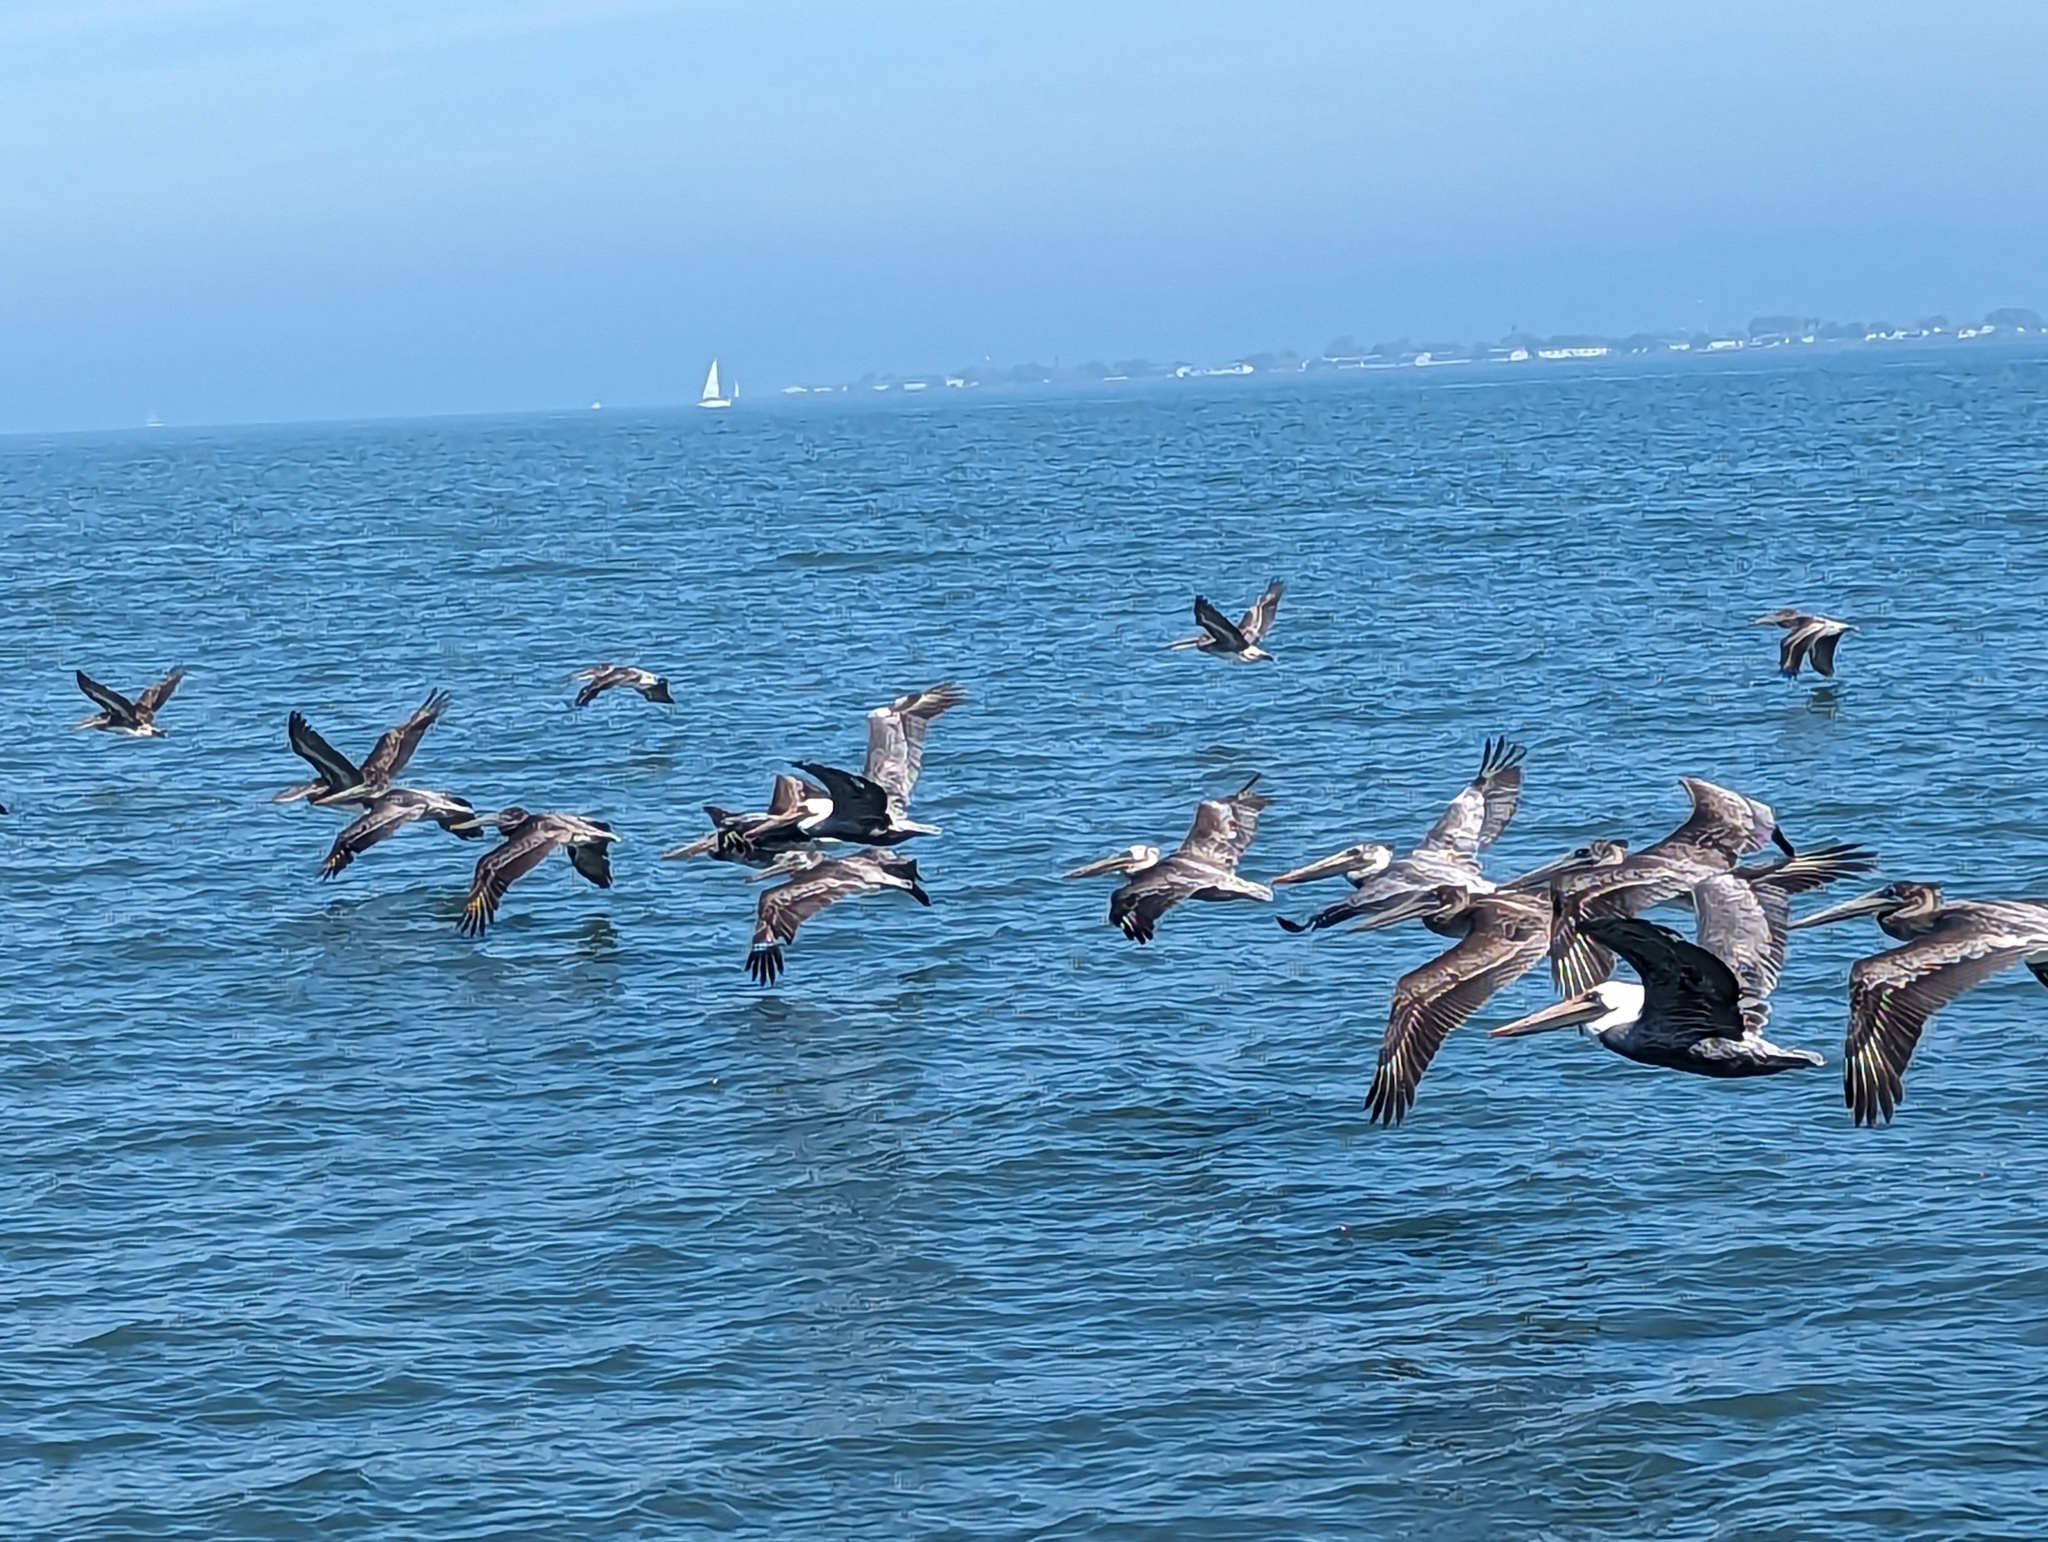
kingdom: Animalia
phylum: Chordata
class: Aves
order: Pelecaniformes
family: Pelecanidae
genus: Pelecanus
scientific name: Pelecanus occidentalis
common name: Brown pelican
